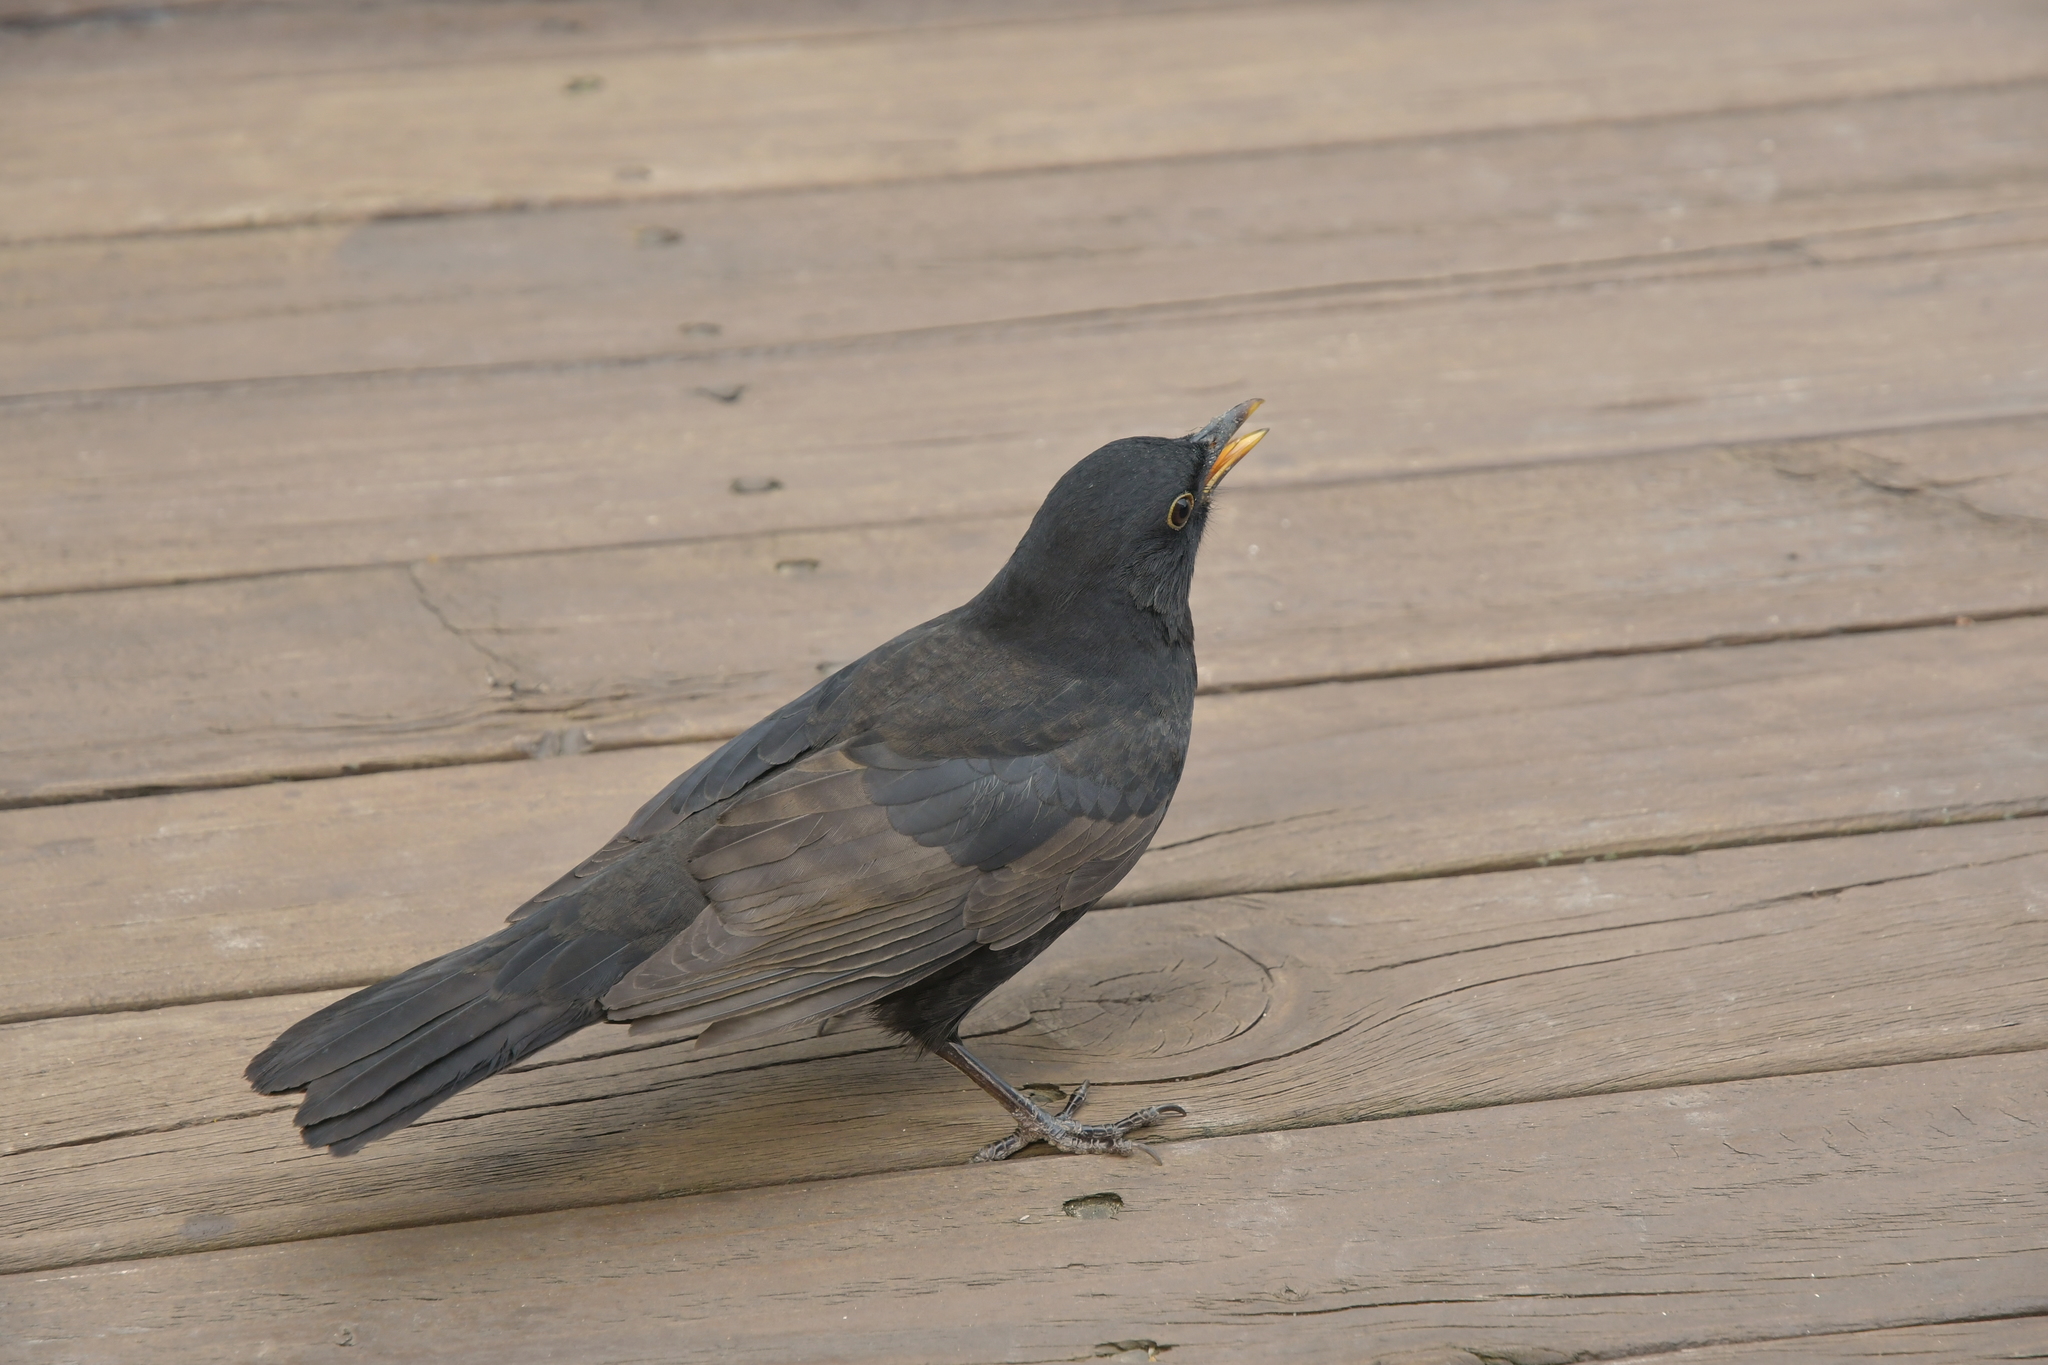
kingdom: Animalia
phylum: Chordata
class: Aves
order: Passeriformes
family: Turdidae
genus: Turdus
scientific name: Turdus merula
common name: Common blackbird
